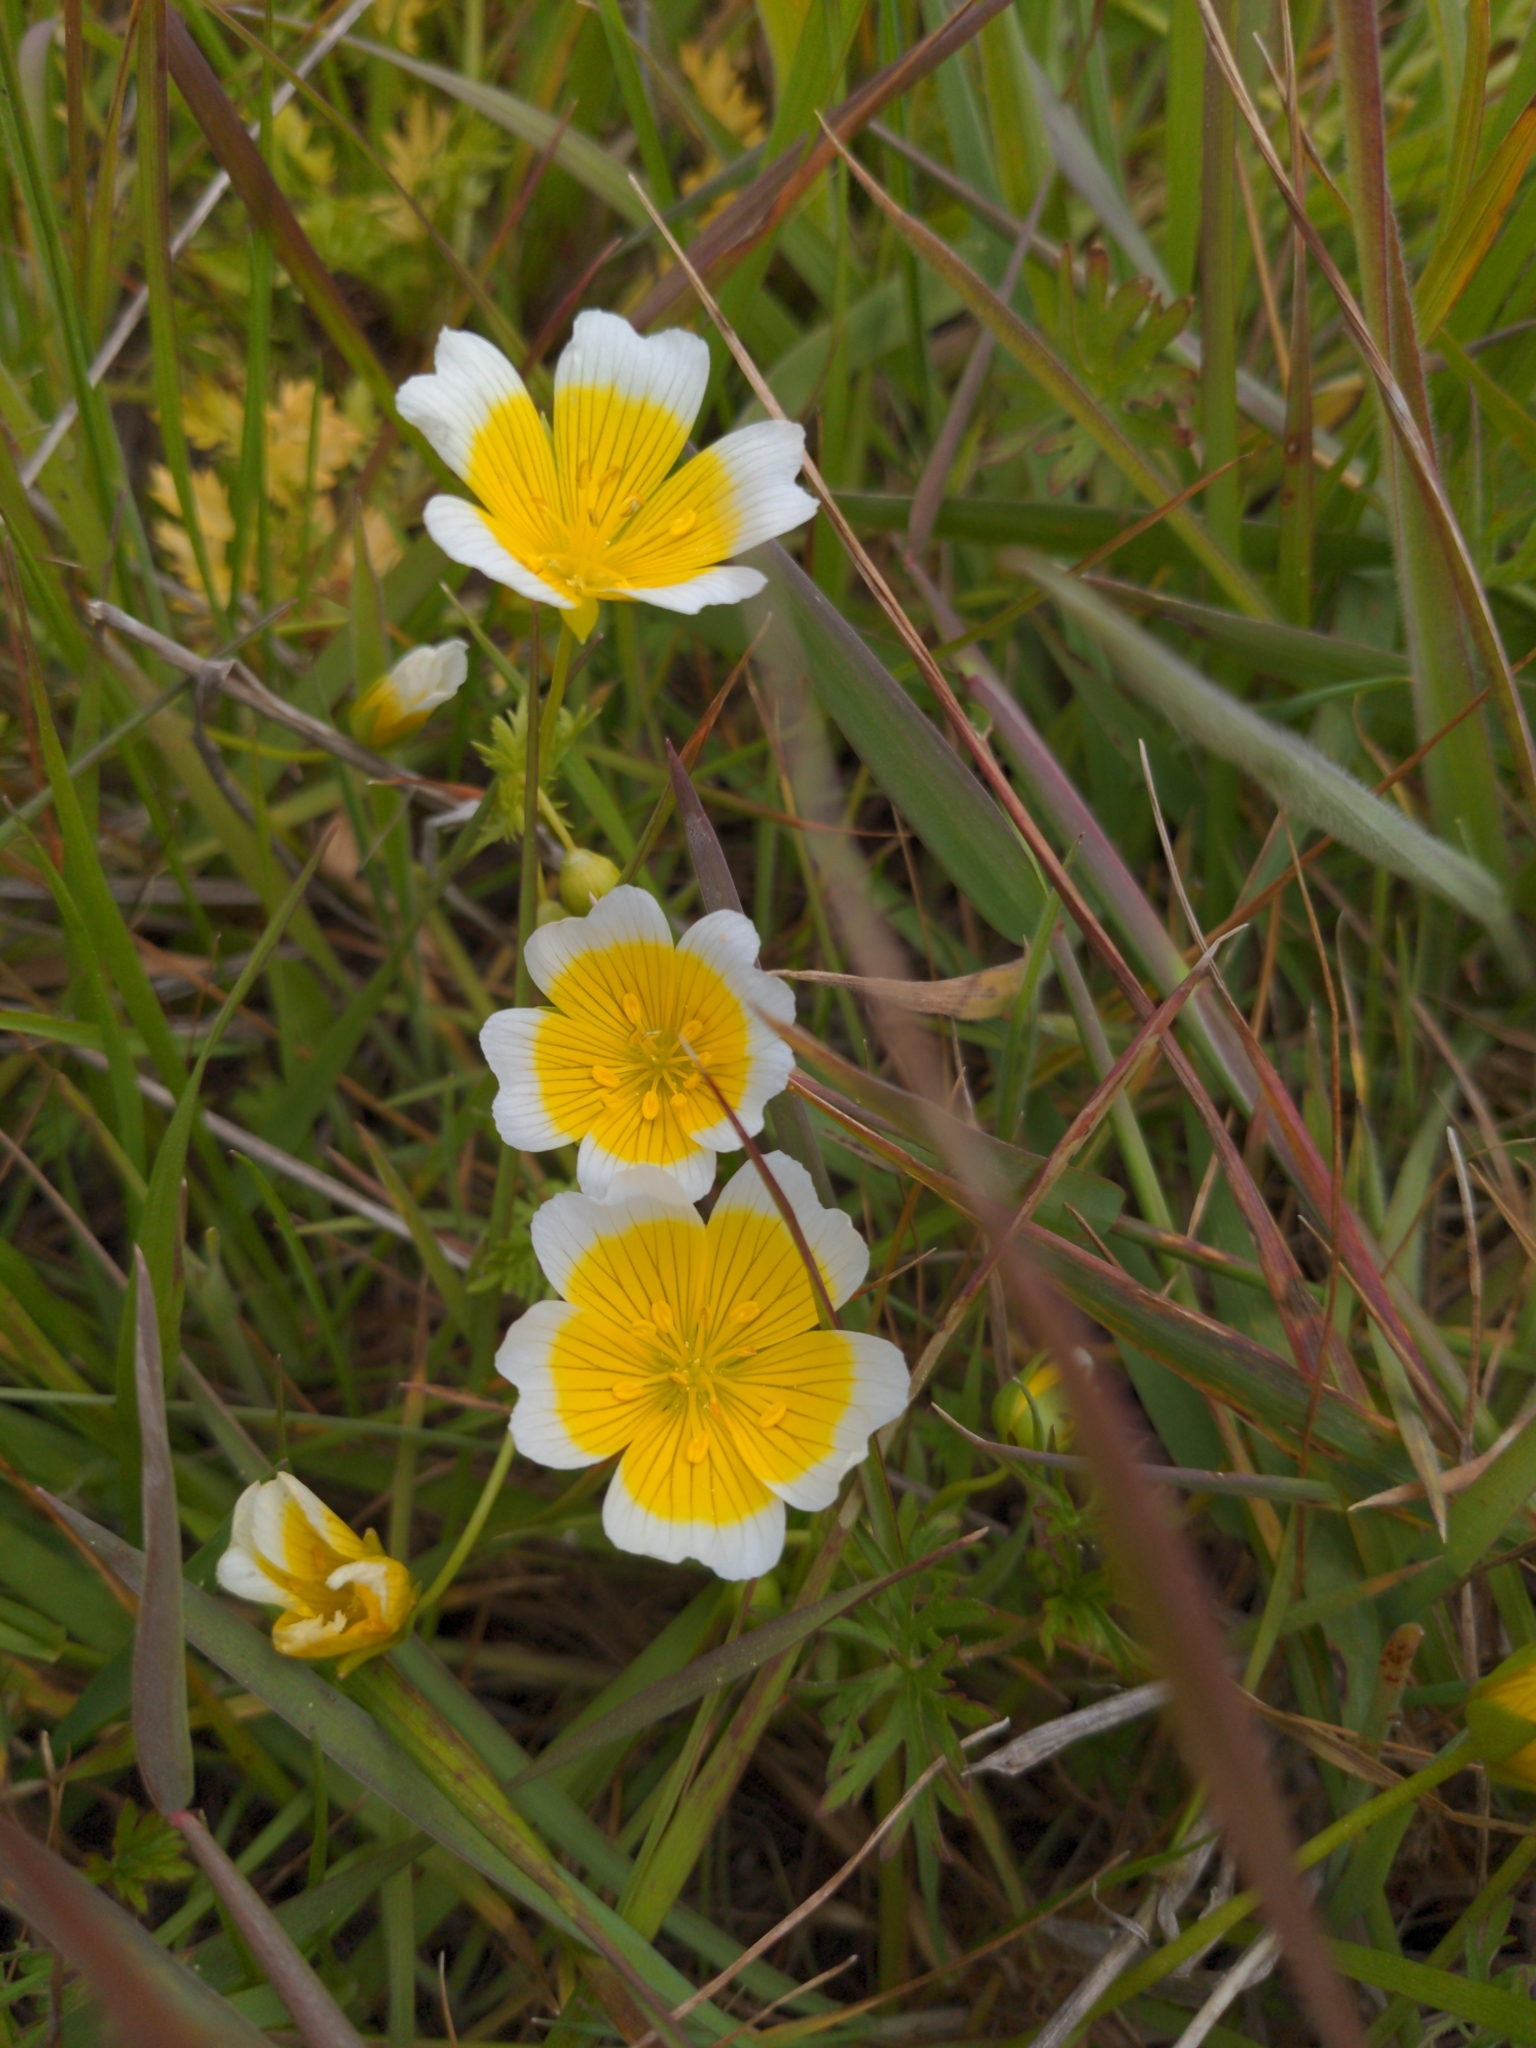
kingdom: Plantae
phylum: Tracheophyta
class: Magnoliopsida
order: Brassicales
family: Limnanthaceae
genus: Limnanthes
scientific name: Limnanthes douglasii
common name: Meadow-foam
